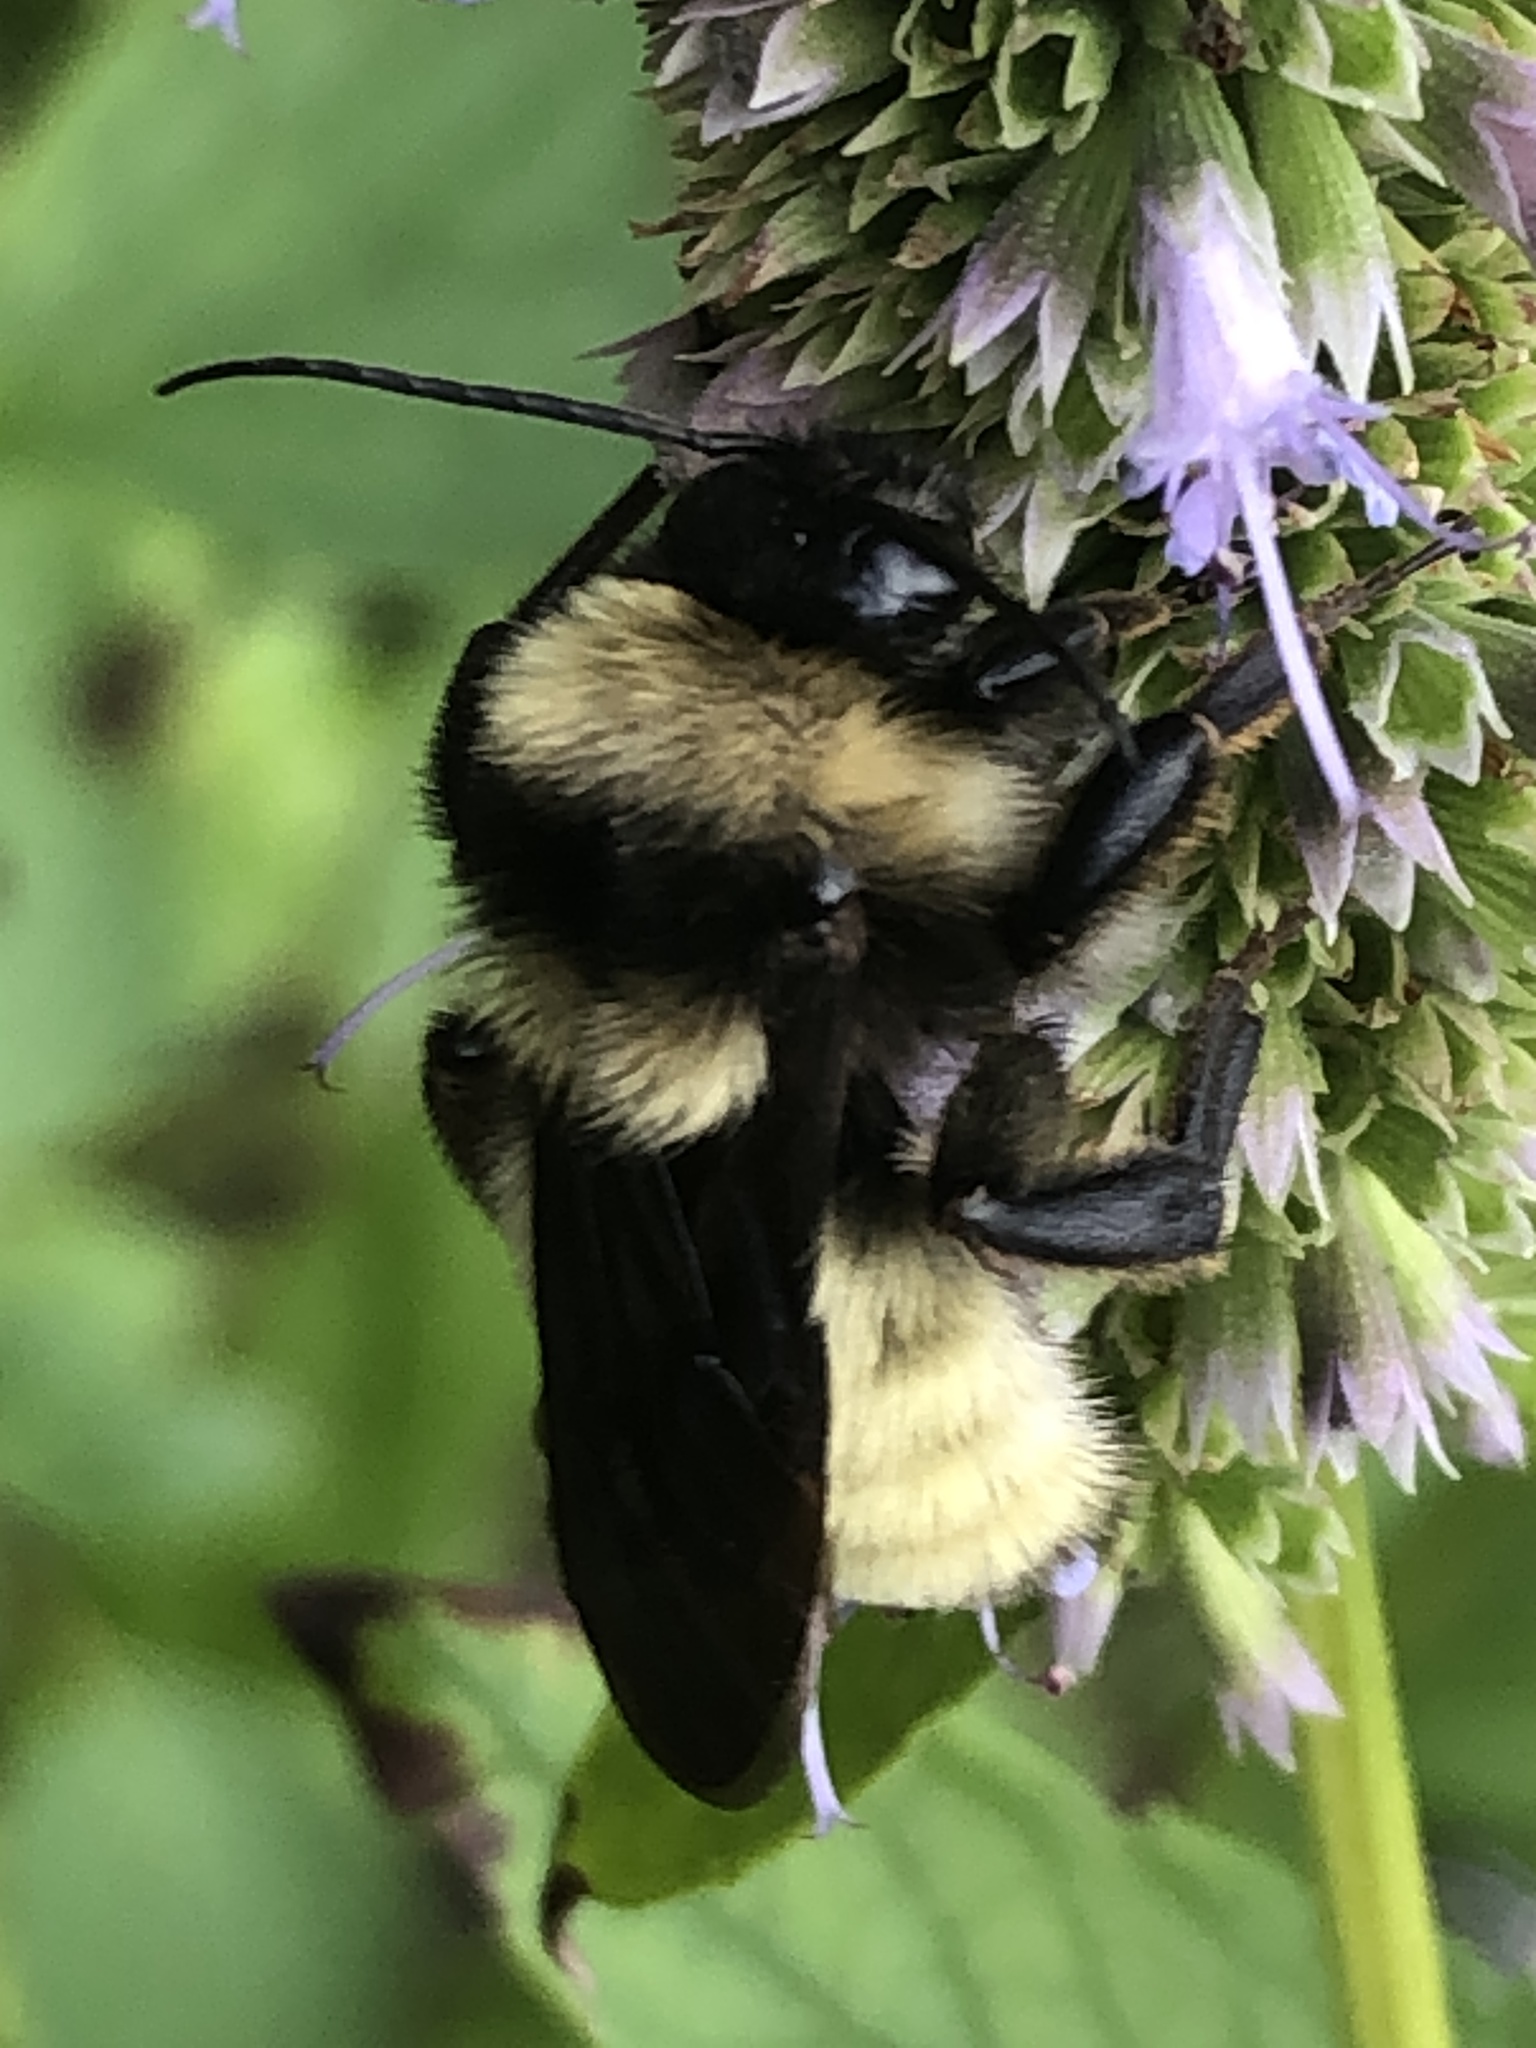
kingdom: Animalia
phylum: Arthropoda
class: Insecta
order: Hymenoptera
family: Apidae
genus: Bombus
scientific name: Bombus pensylvanicus
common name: Bumble bee
